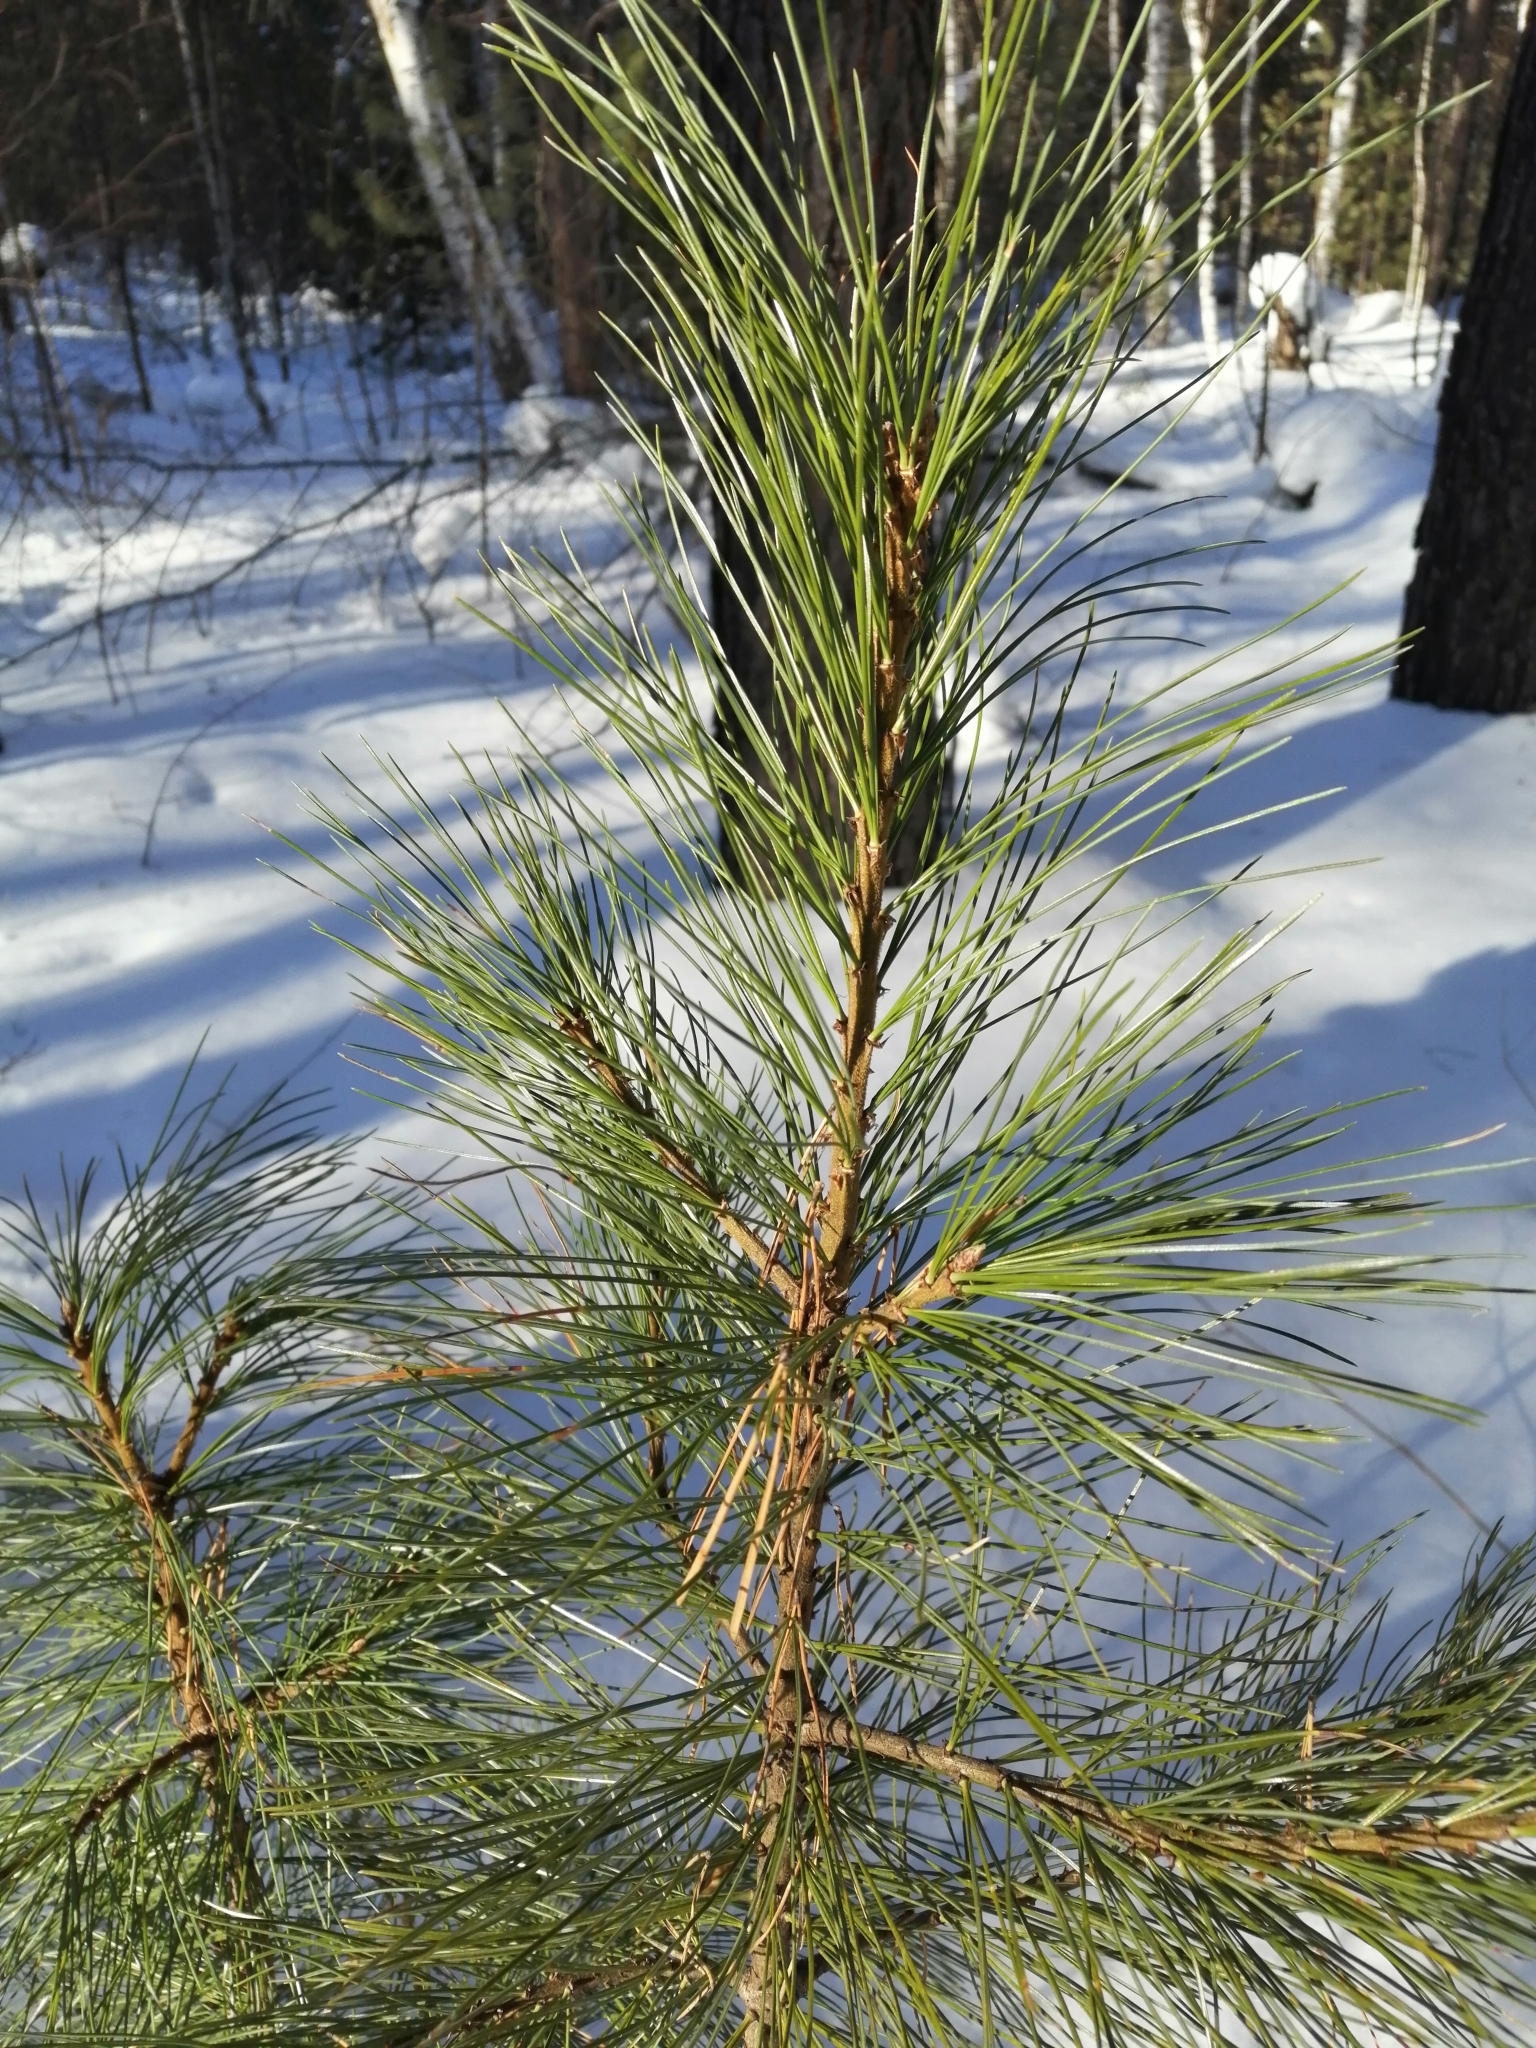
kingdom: Plantae
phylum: Tracheophyta
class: Pinopsida
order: Pinales
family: Pinaceae
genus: Pinus
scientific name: Pinus sibirica
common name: Siberian pine
